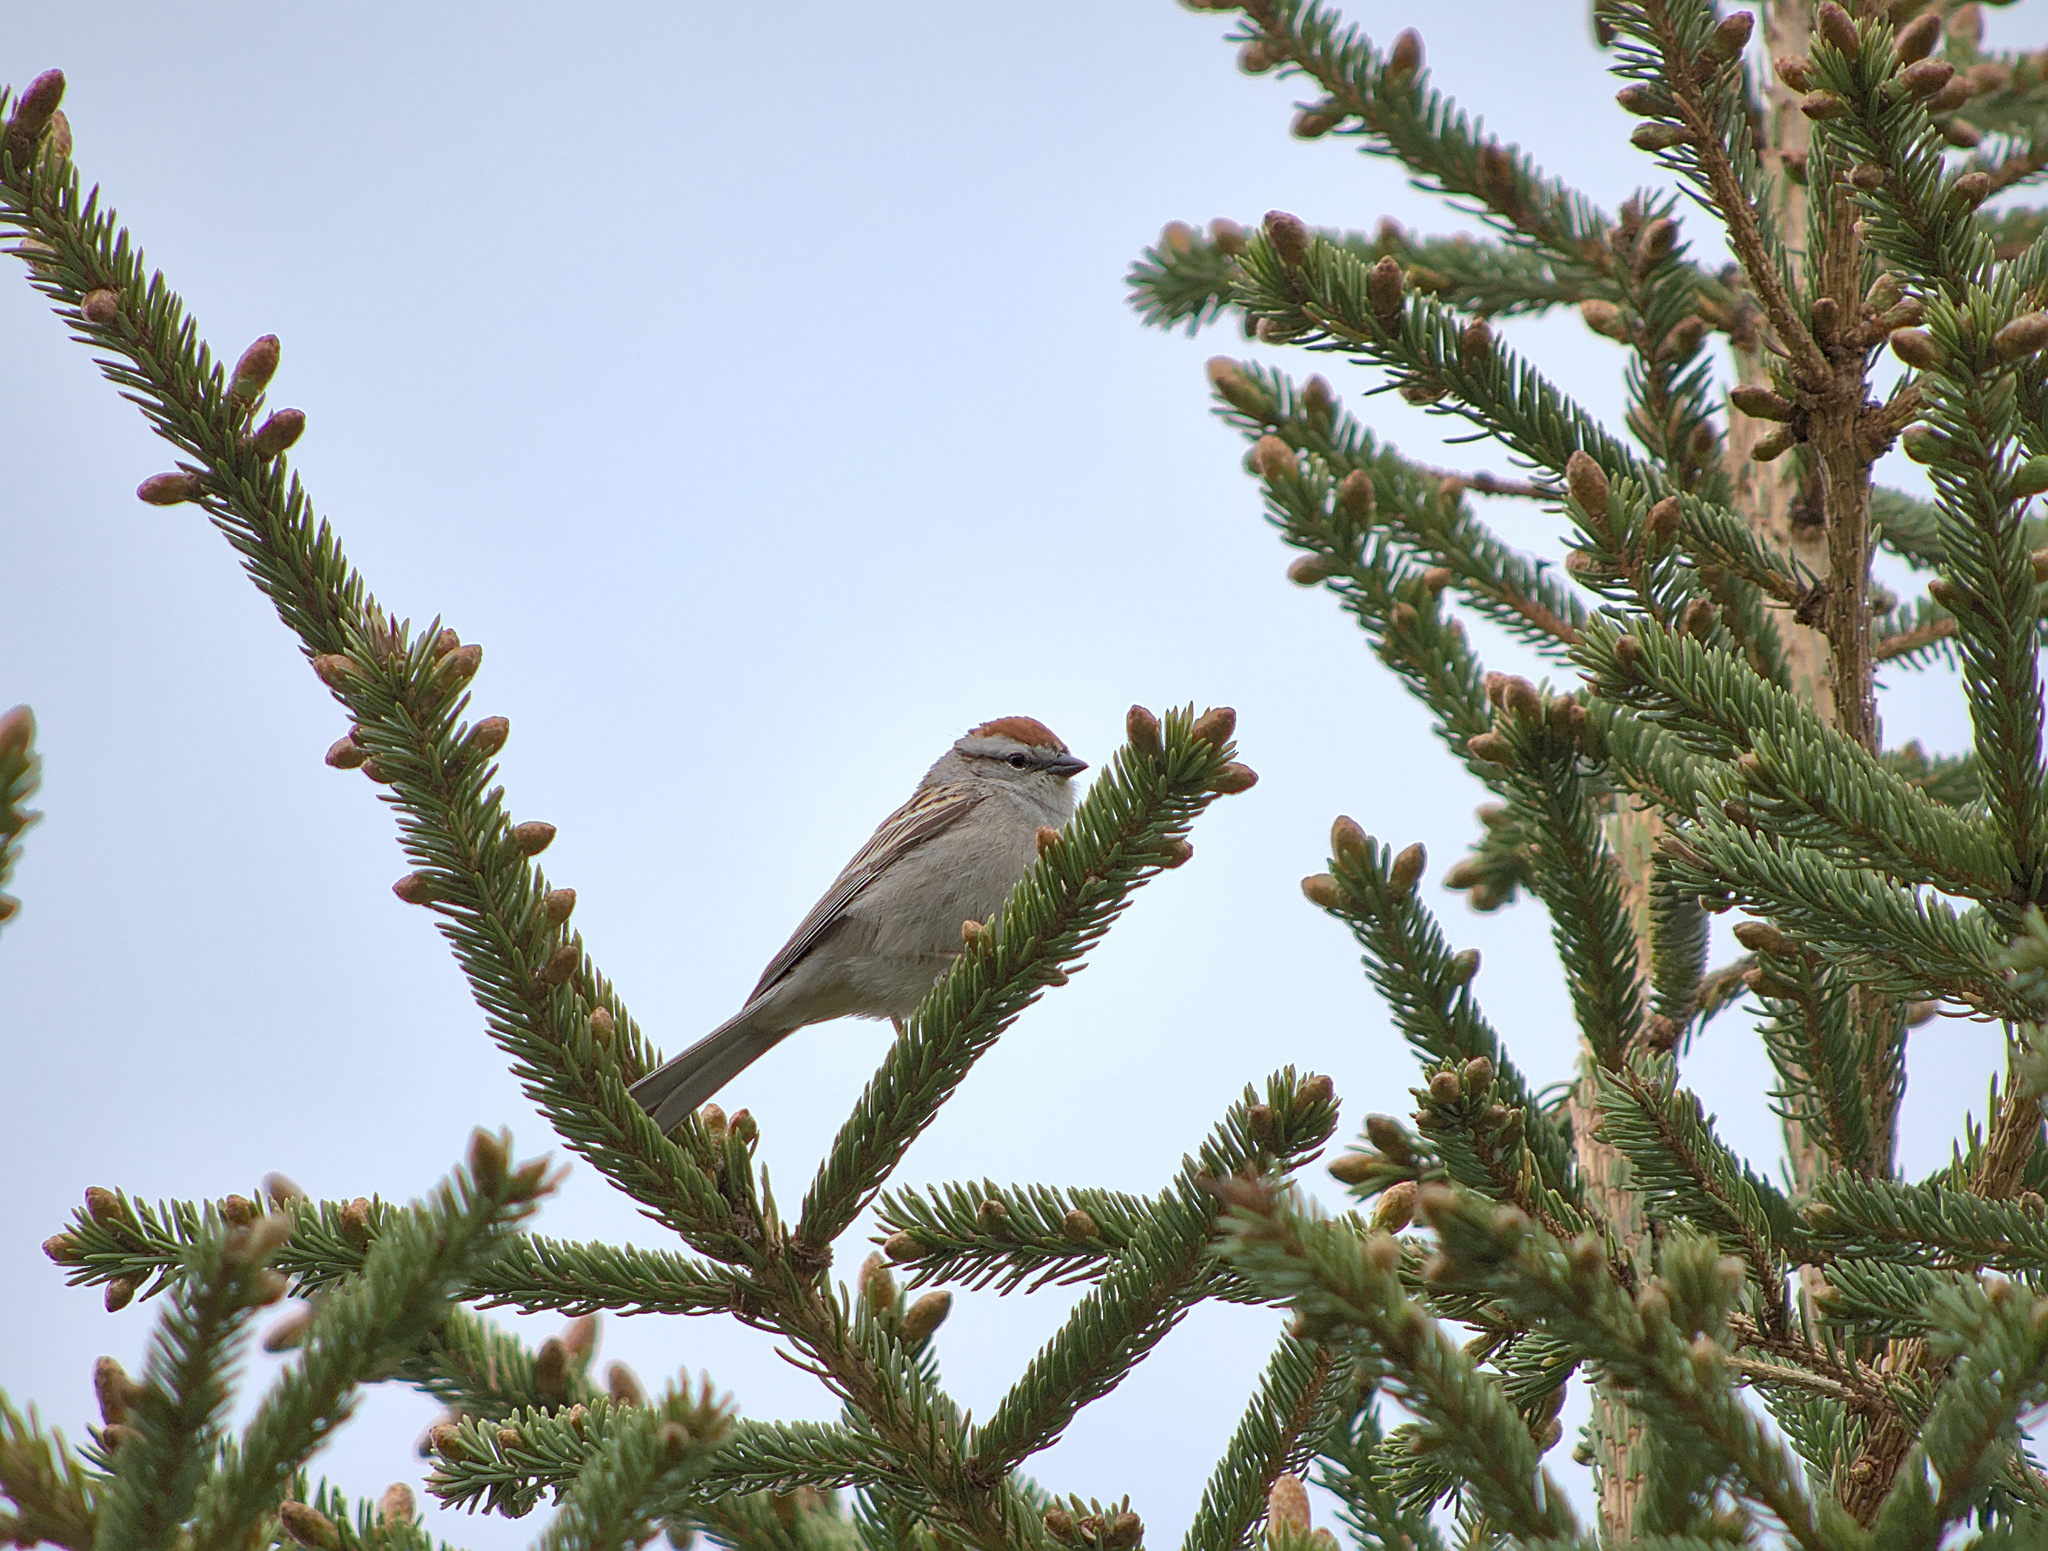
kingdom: Animalia
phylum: Chordata
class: Aves
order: Passeriformes
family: Passerellidae
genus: Spizella
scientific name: Spizella passerina
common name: Chipping sparrow
